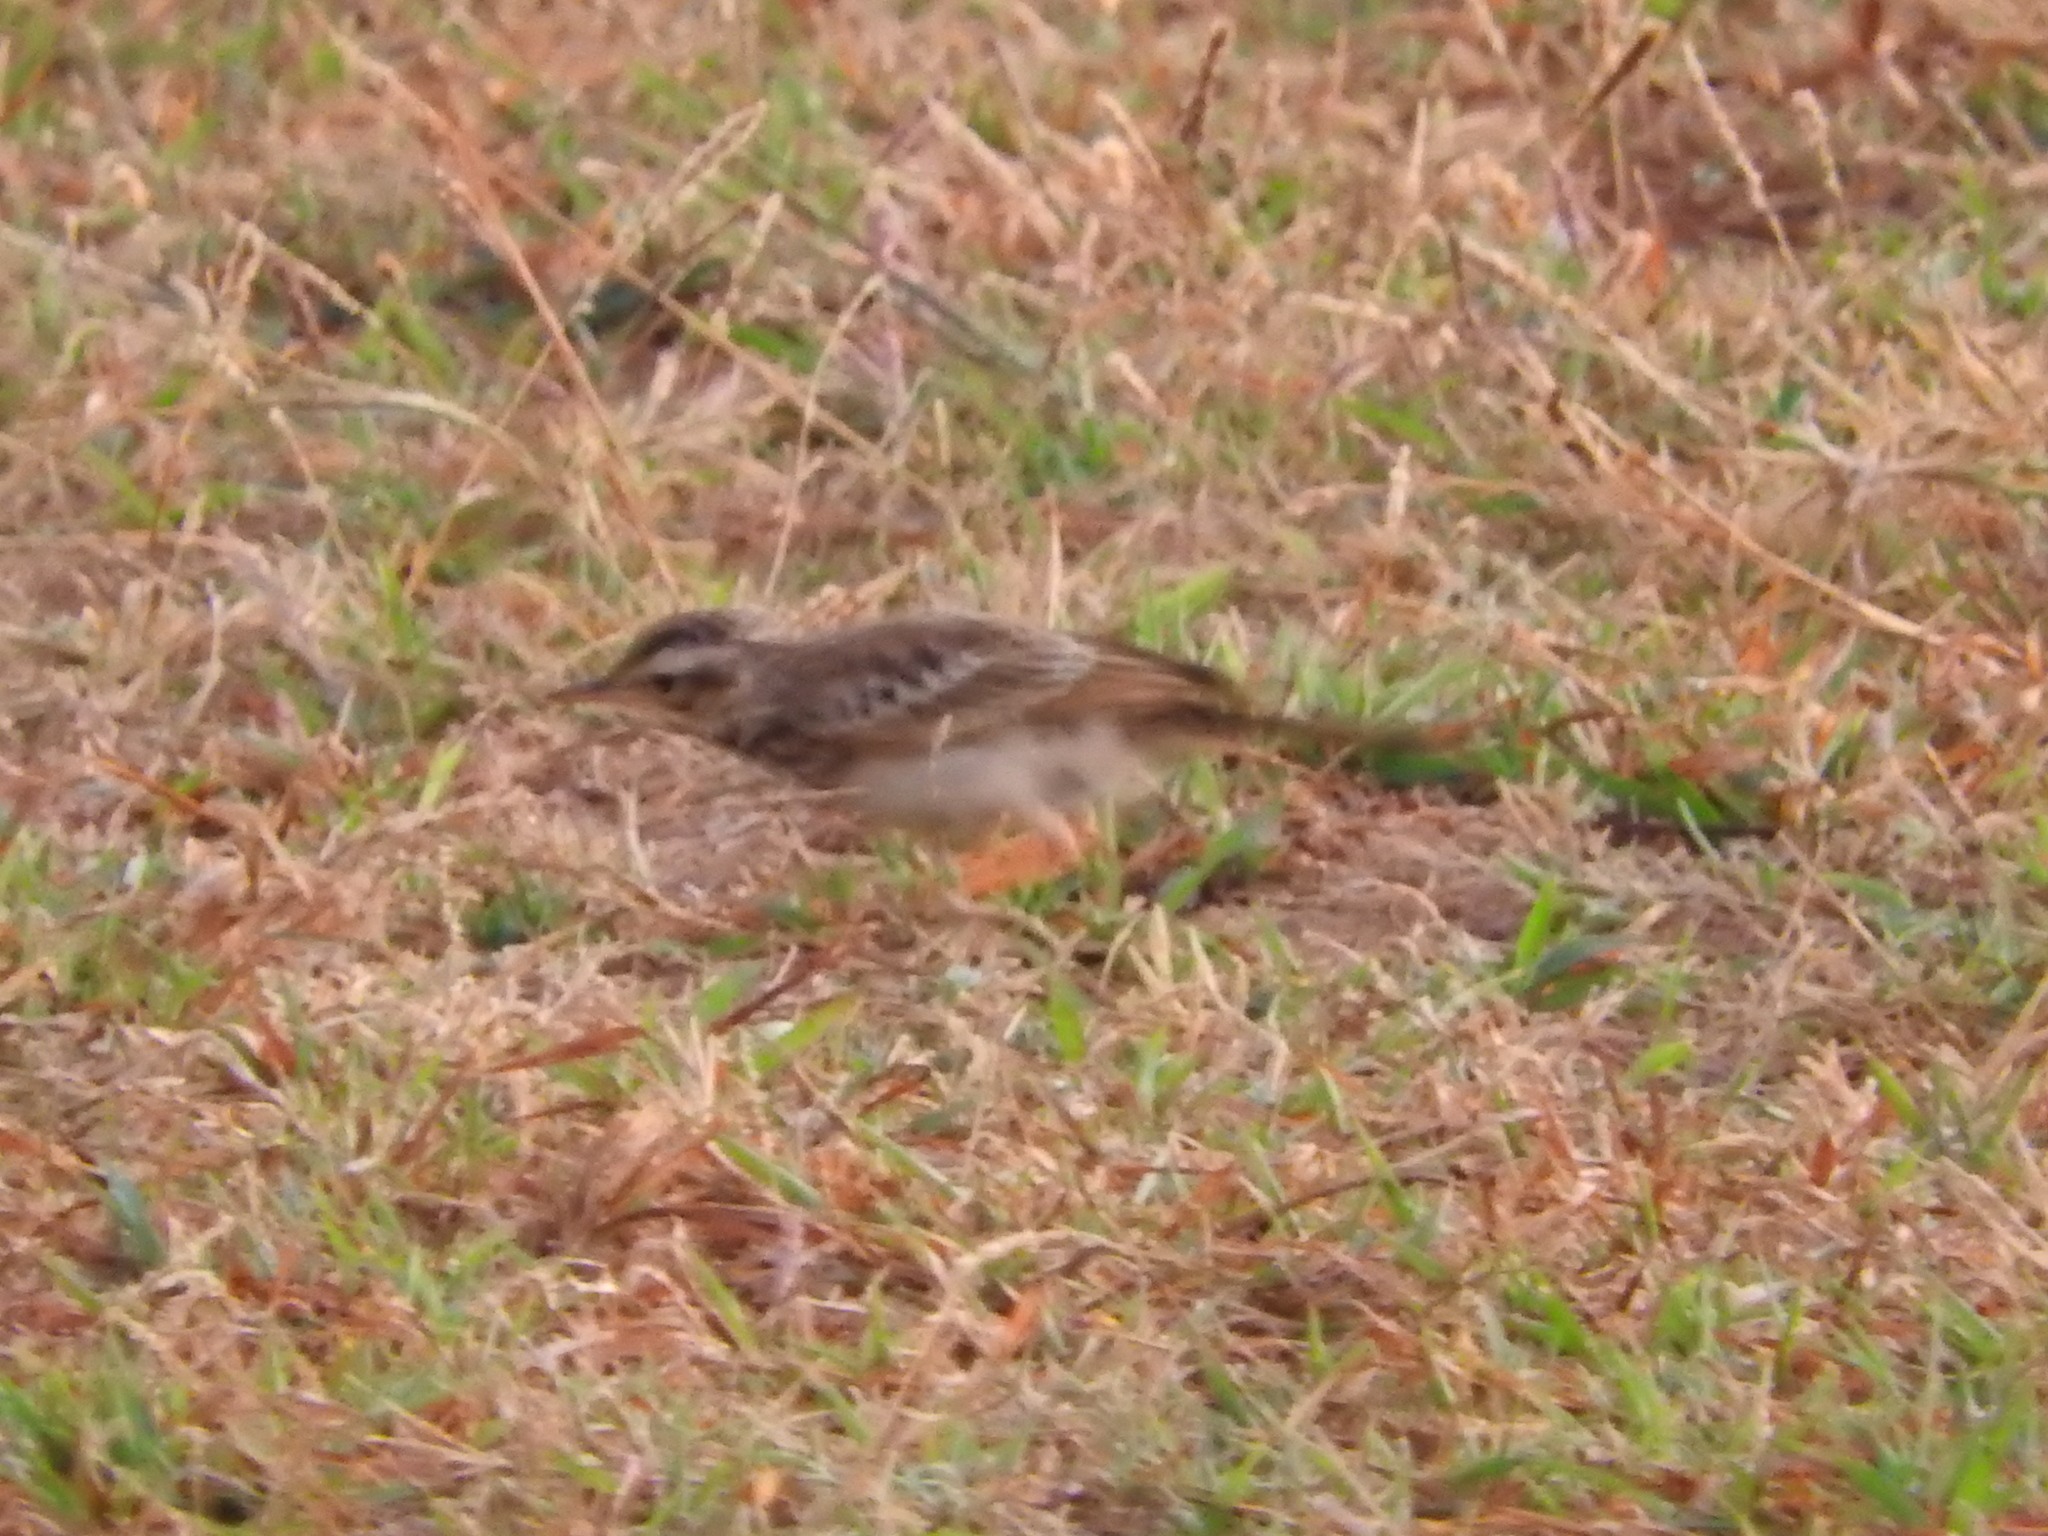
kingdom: Animalia
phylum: Chordata
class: Aves
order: Passeriformes
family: Motacillidae
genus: Anthus
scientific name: Anthus cinnamomeus
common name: African pipit
